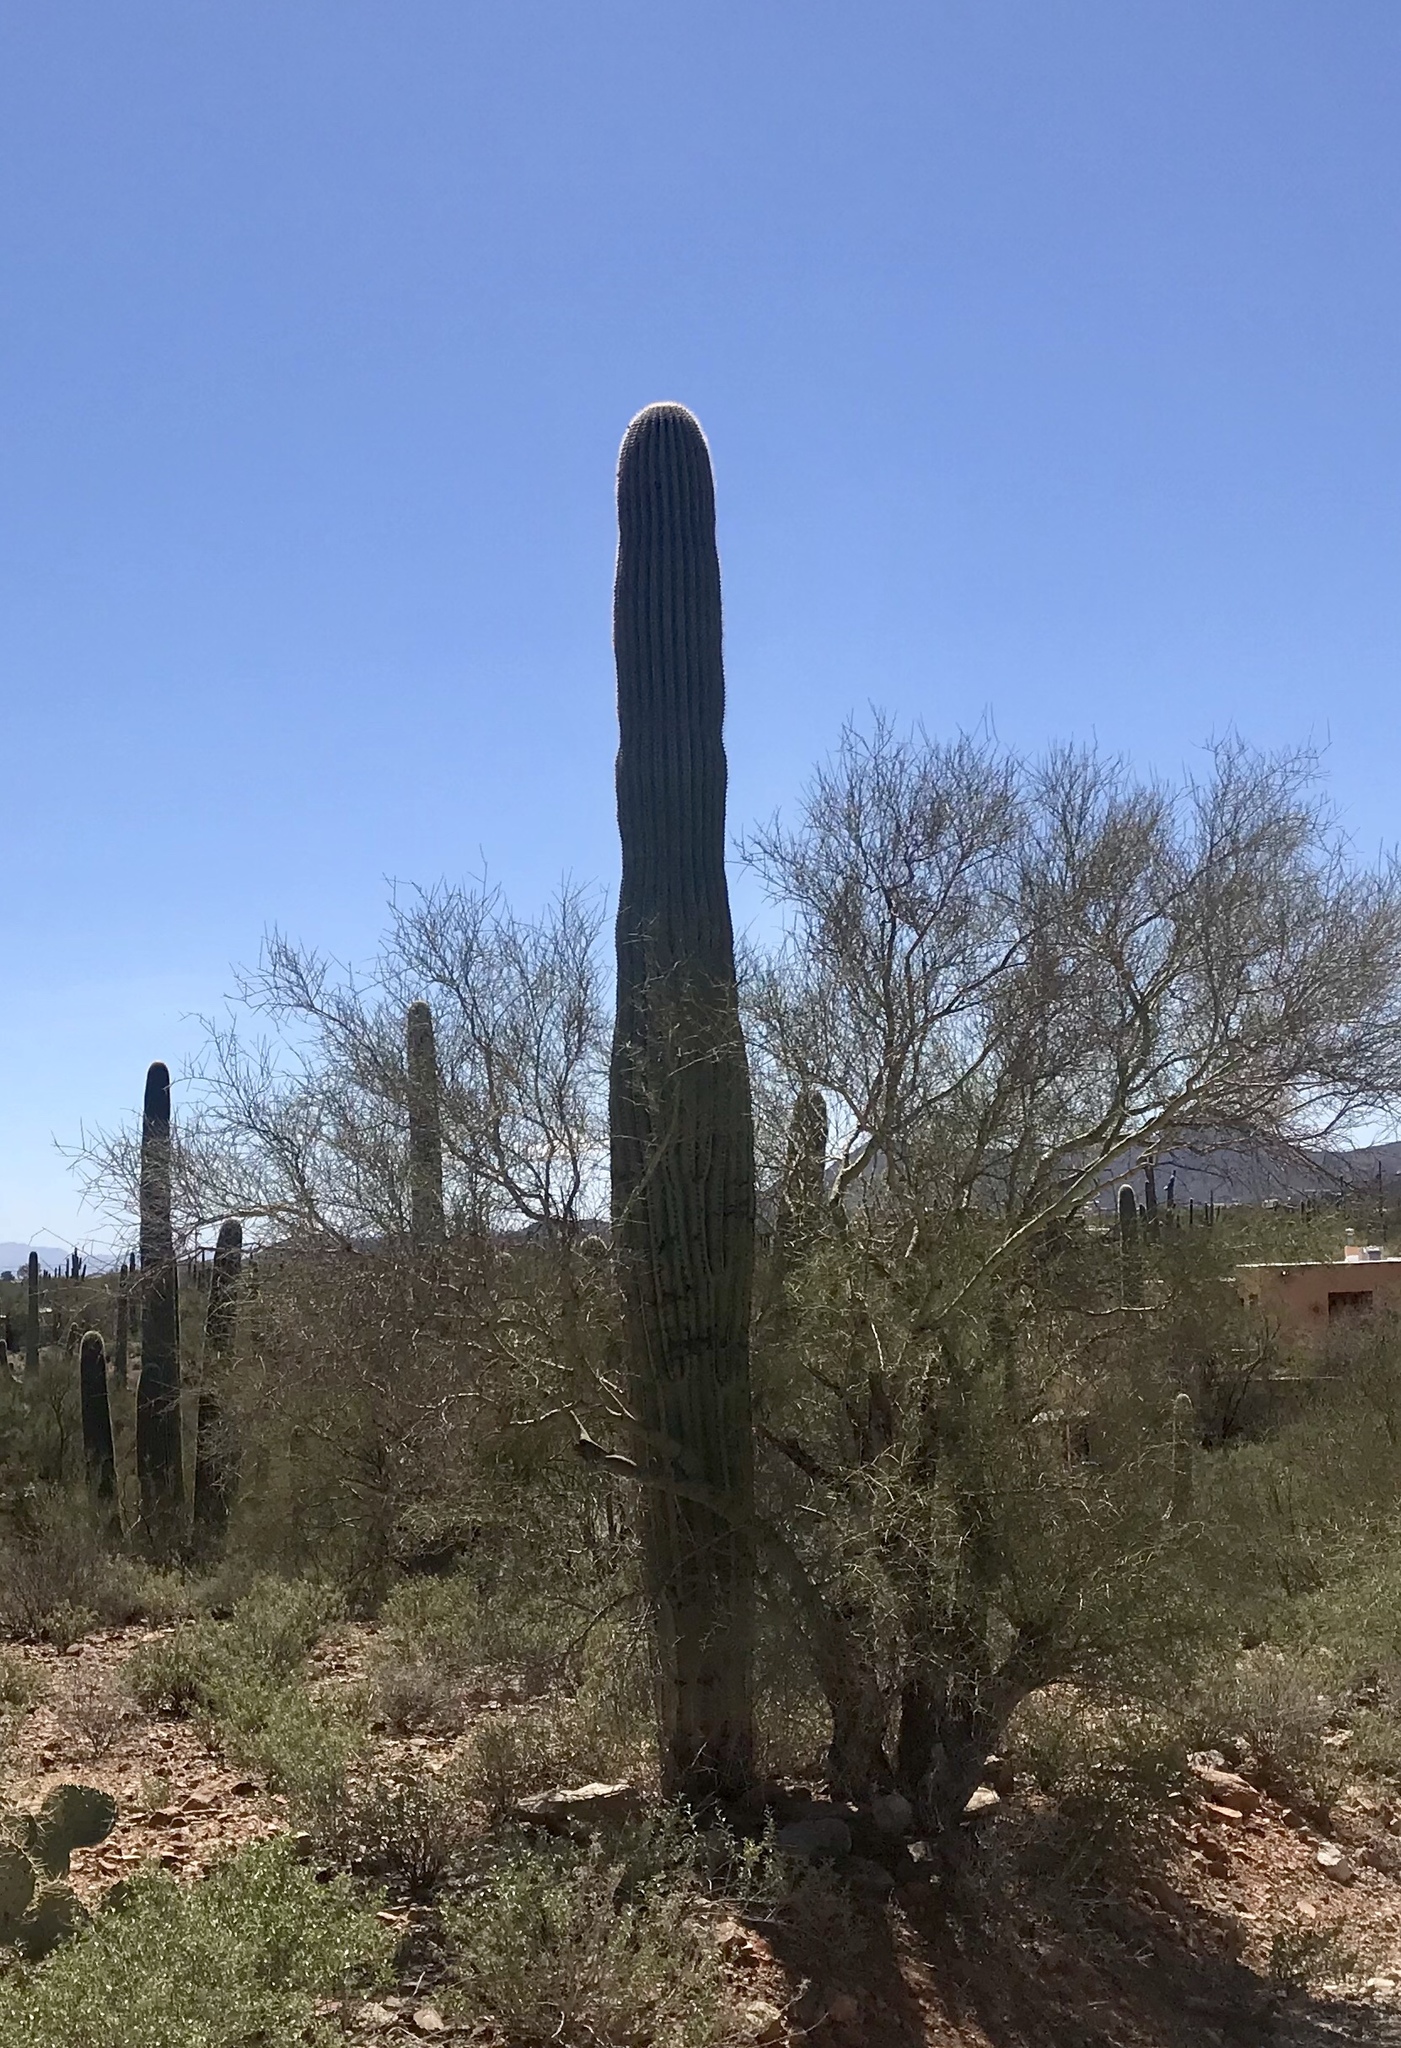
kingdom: Plantae
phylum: Tracheophyta
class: Magnoliopsida
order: Caryophyllales
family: Cactaceae
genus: Carnegiea
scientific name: Carnegiea gigantea
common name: Saguaro
